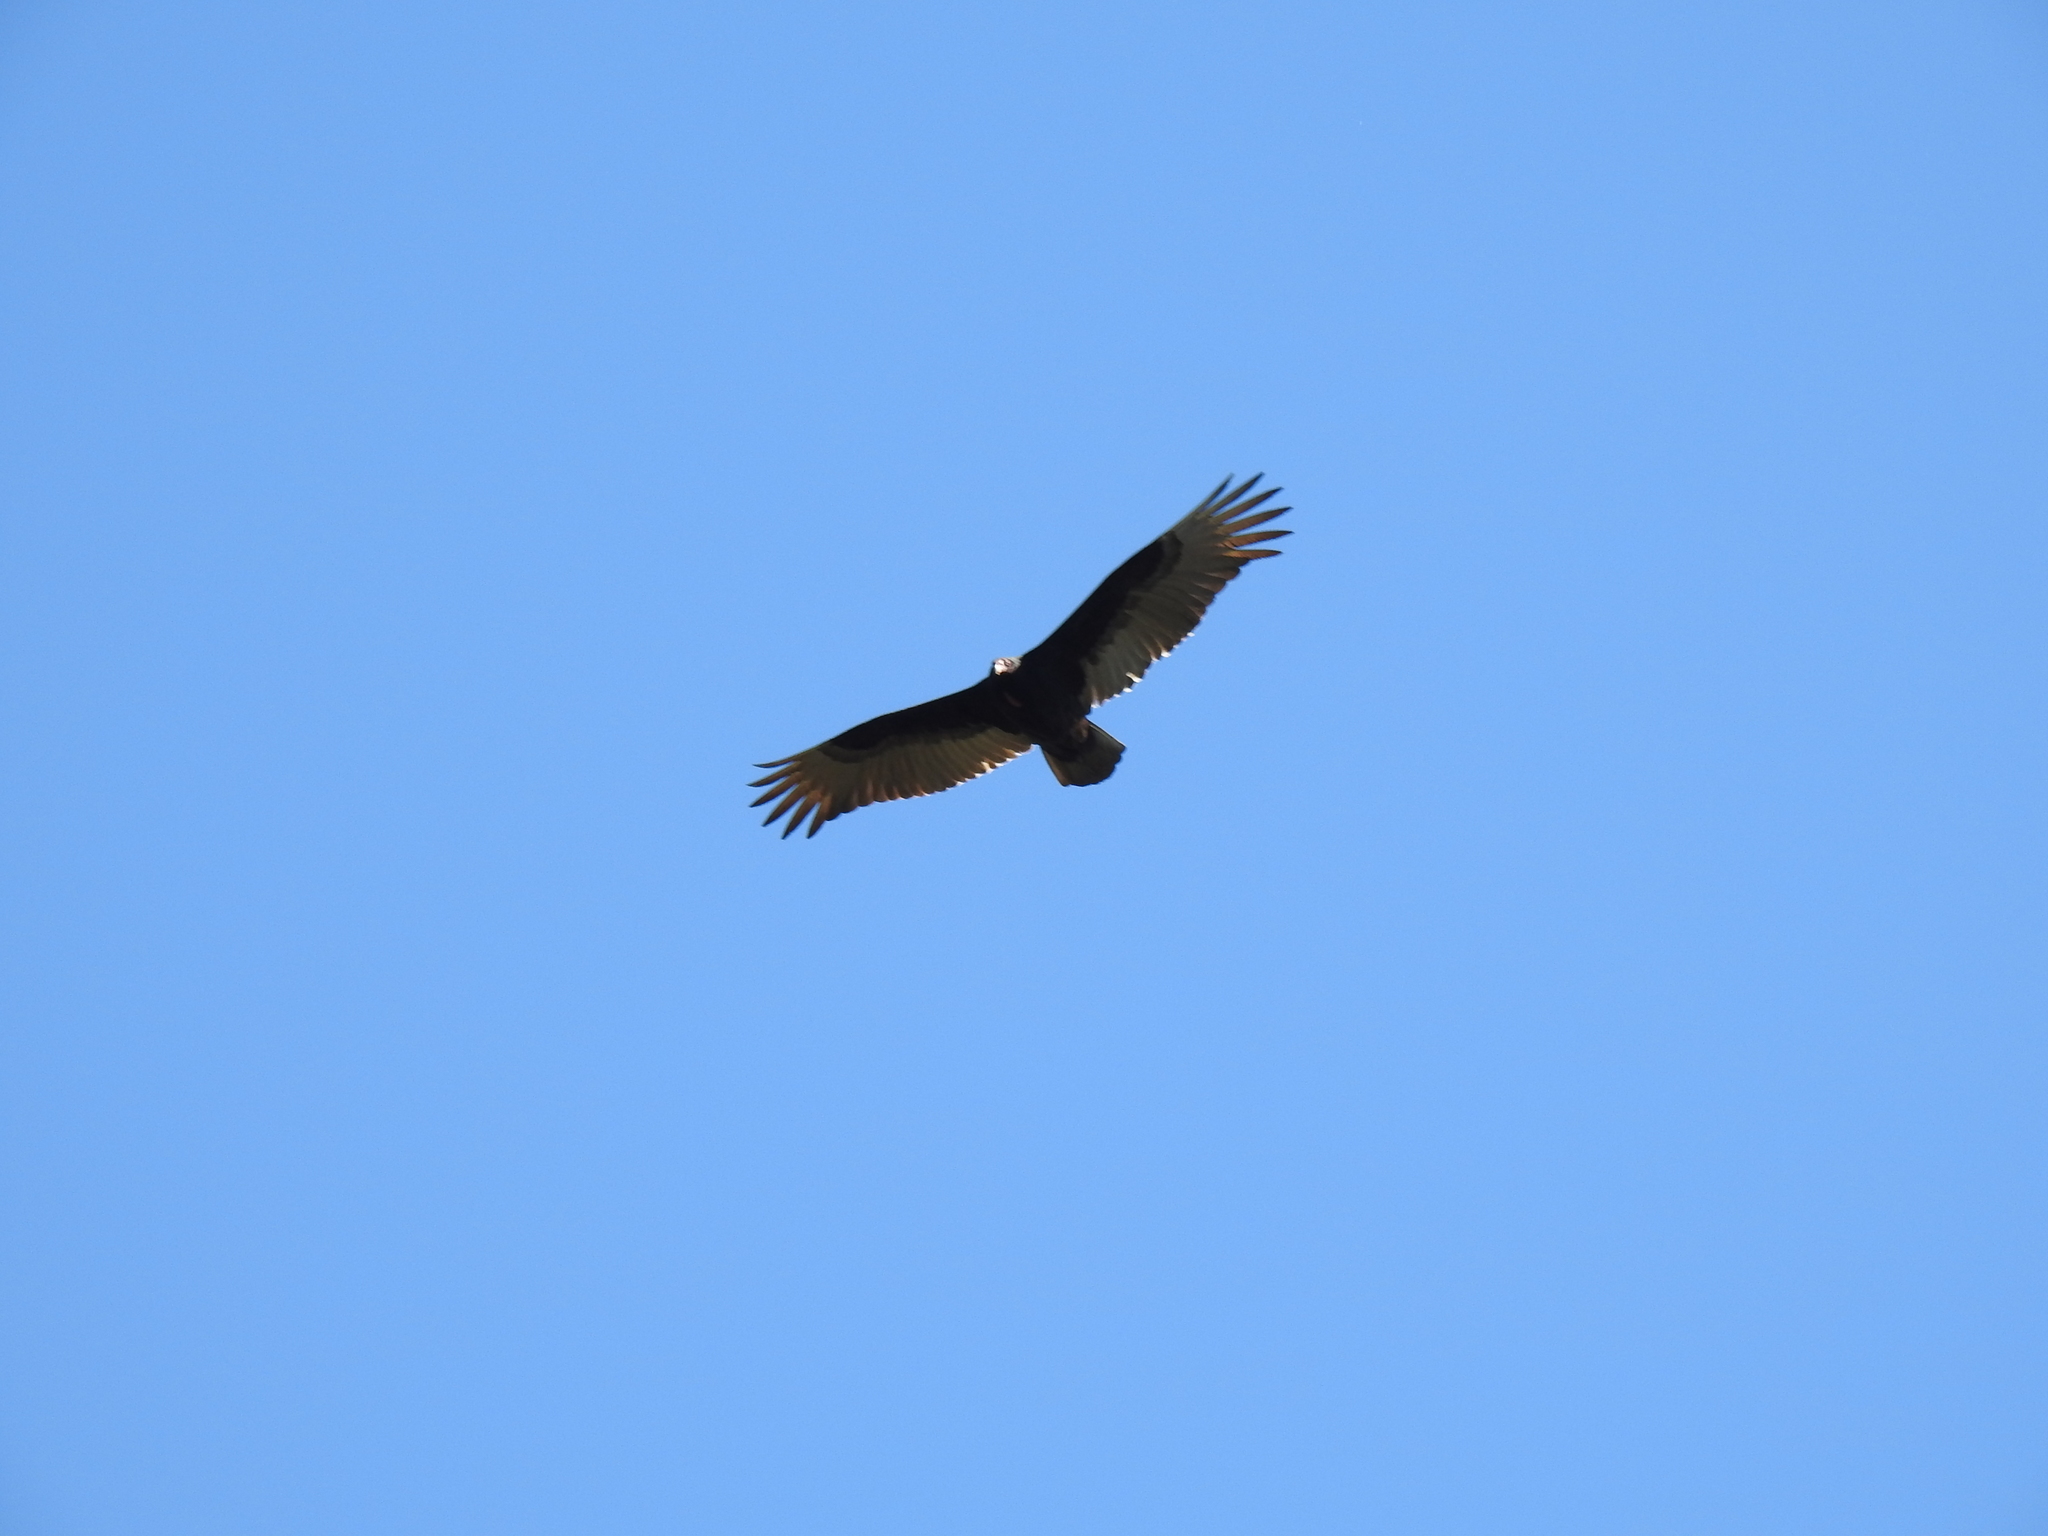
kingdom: Animalia
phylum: Chordata
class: Aves
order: Accipitriformes
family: Cathartidae
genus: Cathartes
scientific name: Cathartes aura
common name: Turkey vulture
